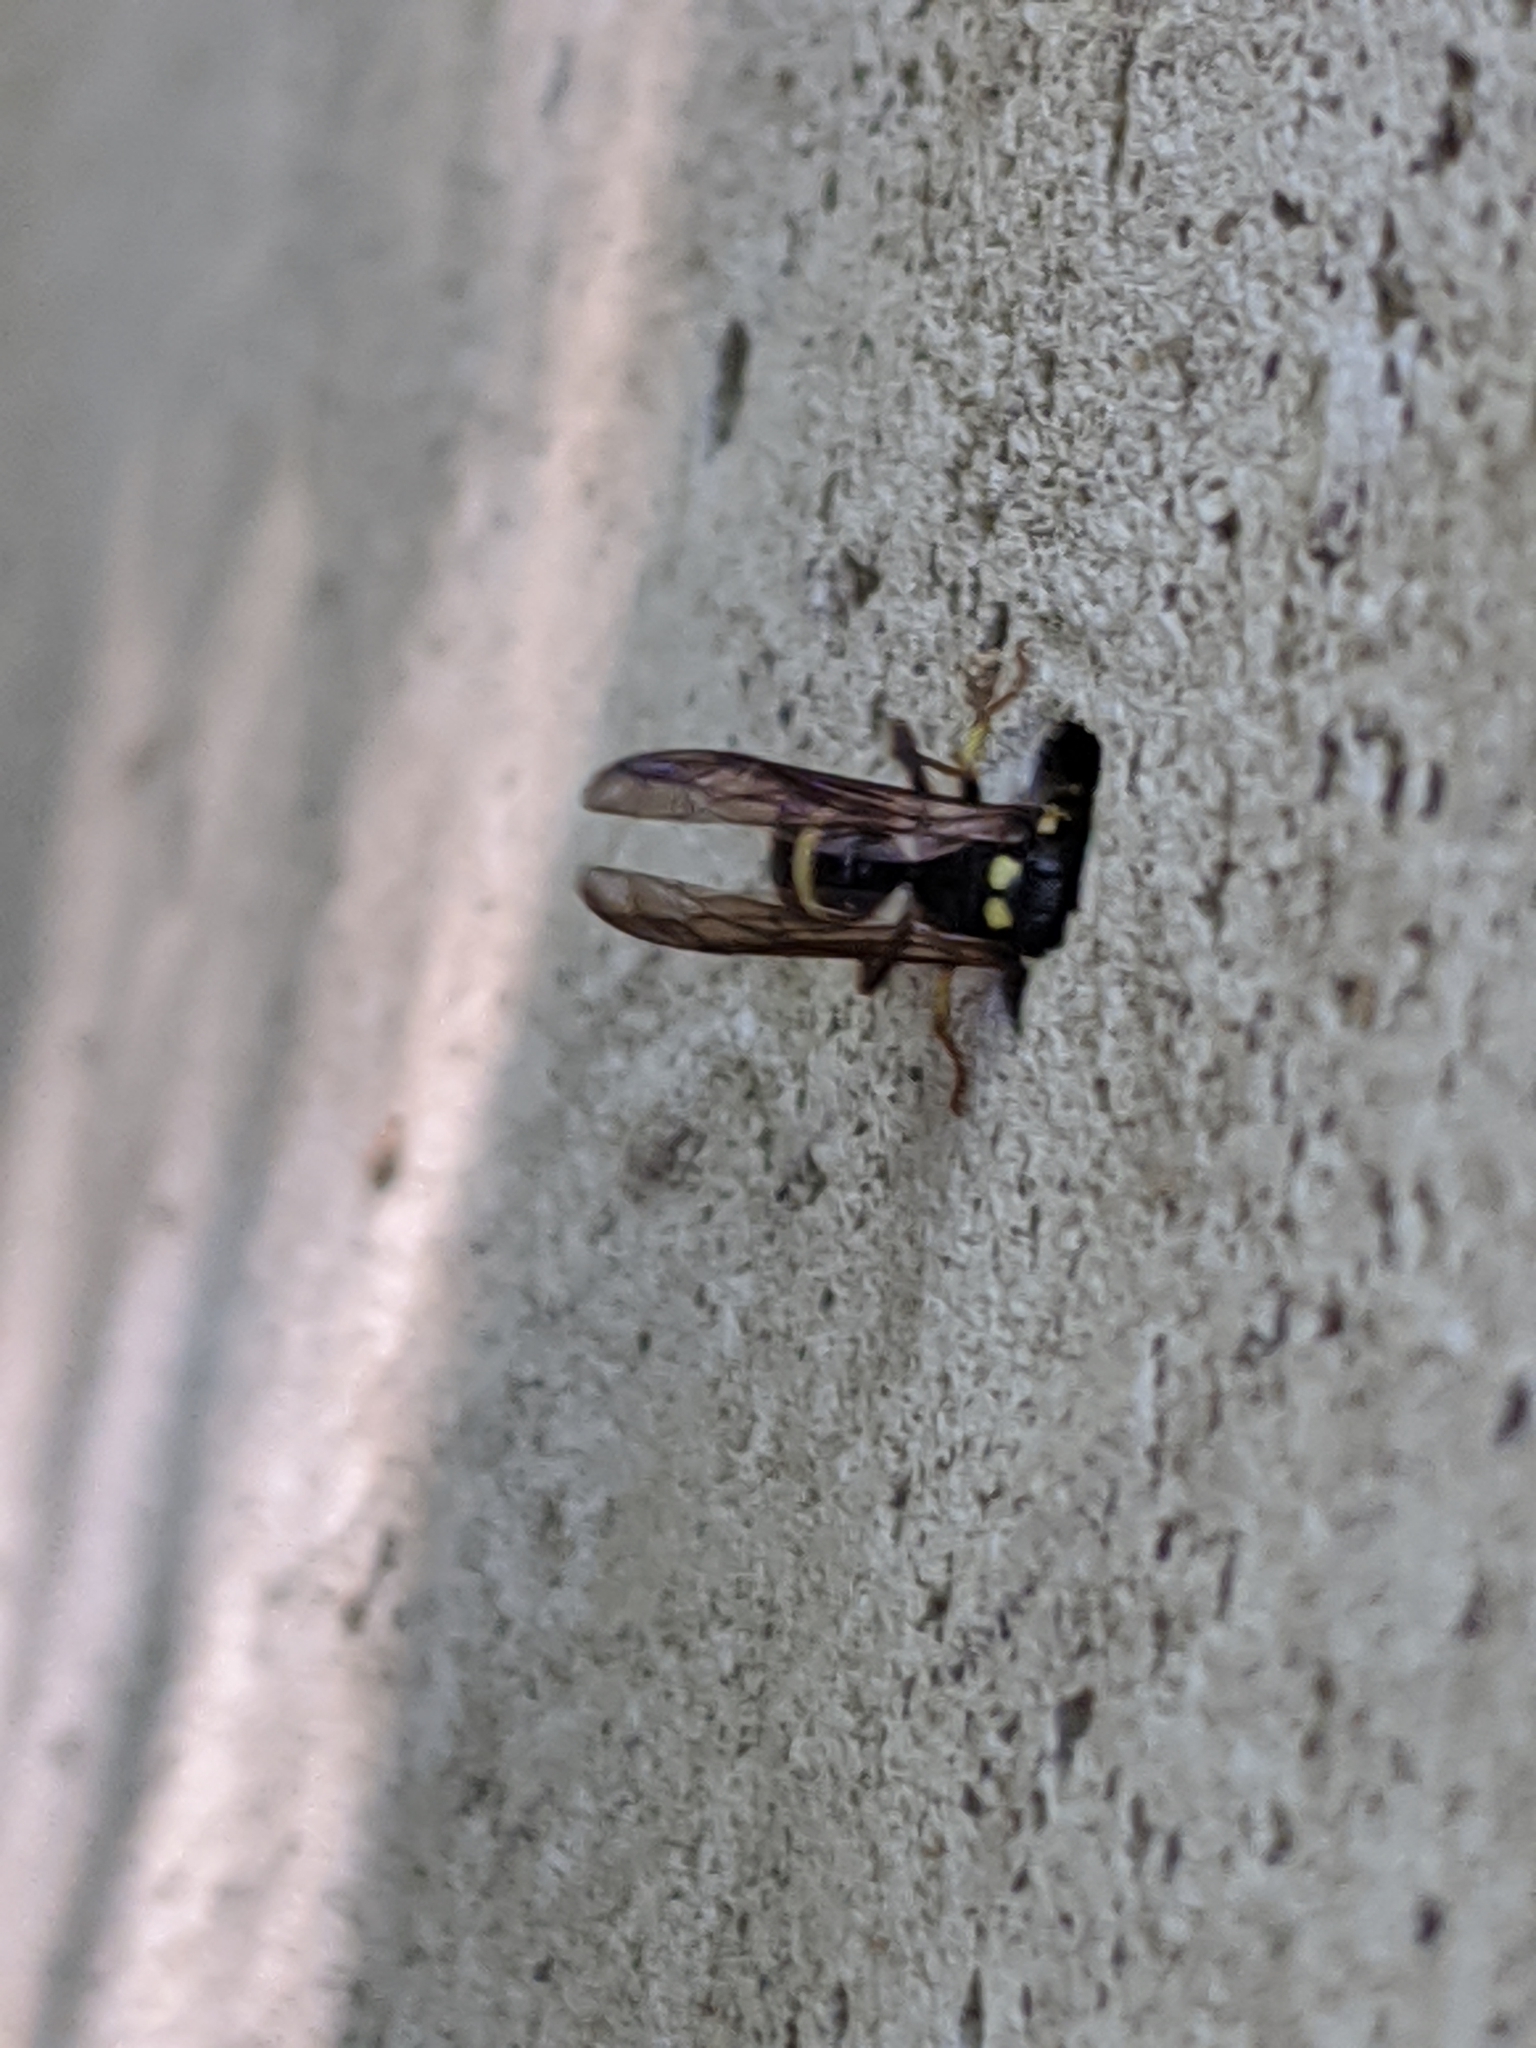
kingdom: Animalia
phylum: Arthropoda
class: Insecta
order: Hymenoptera
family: Vespidae
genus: Ancistrocerus
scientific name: Ancistrocerus
